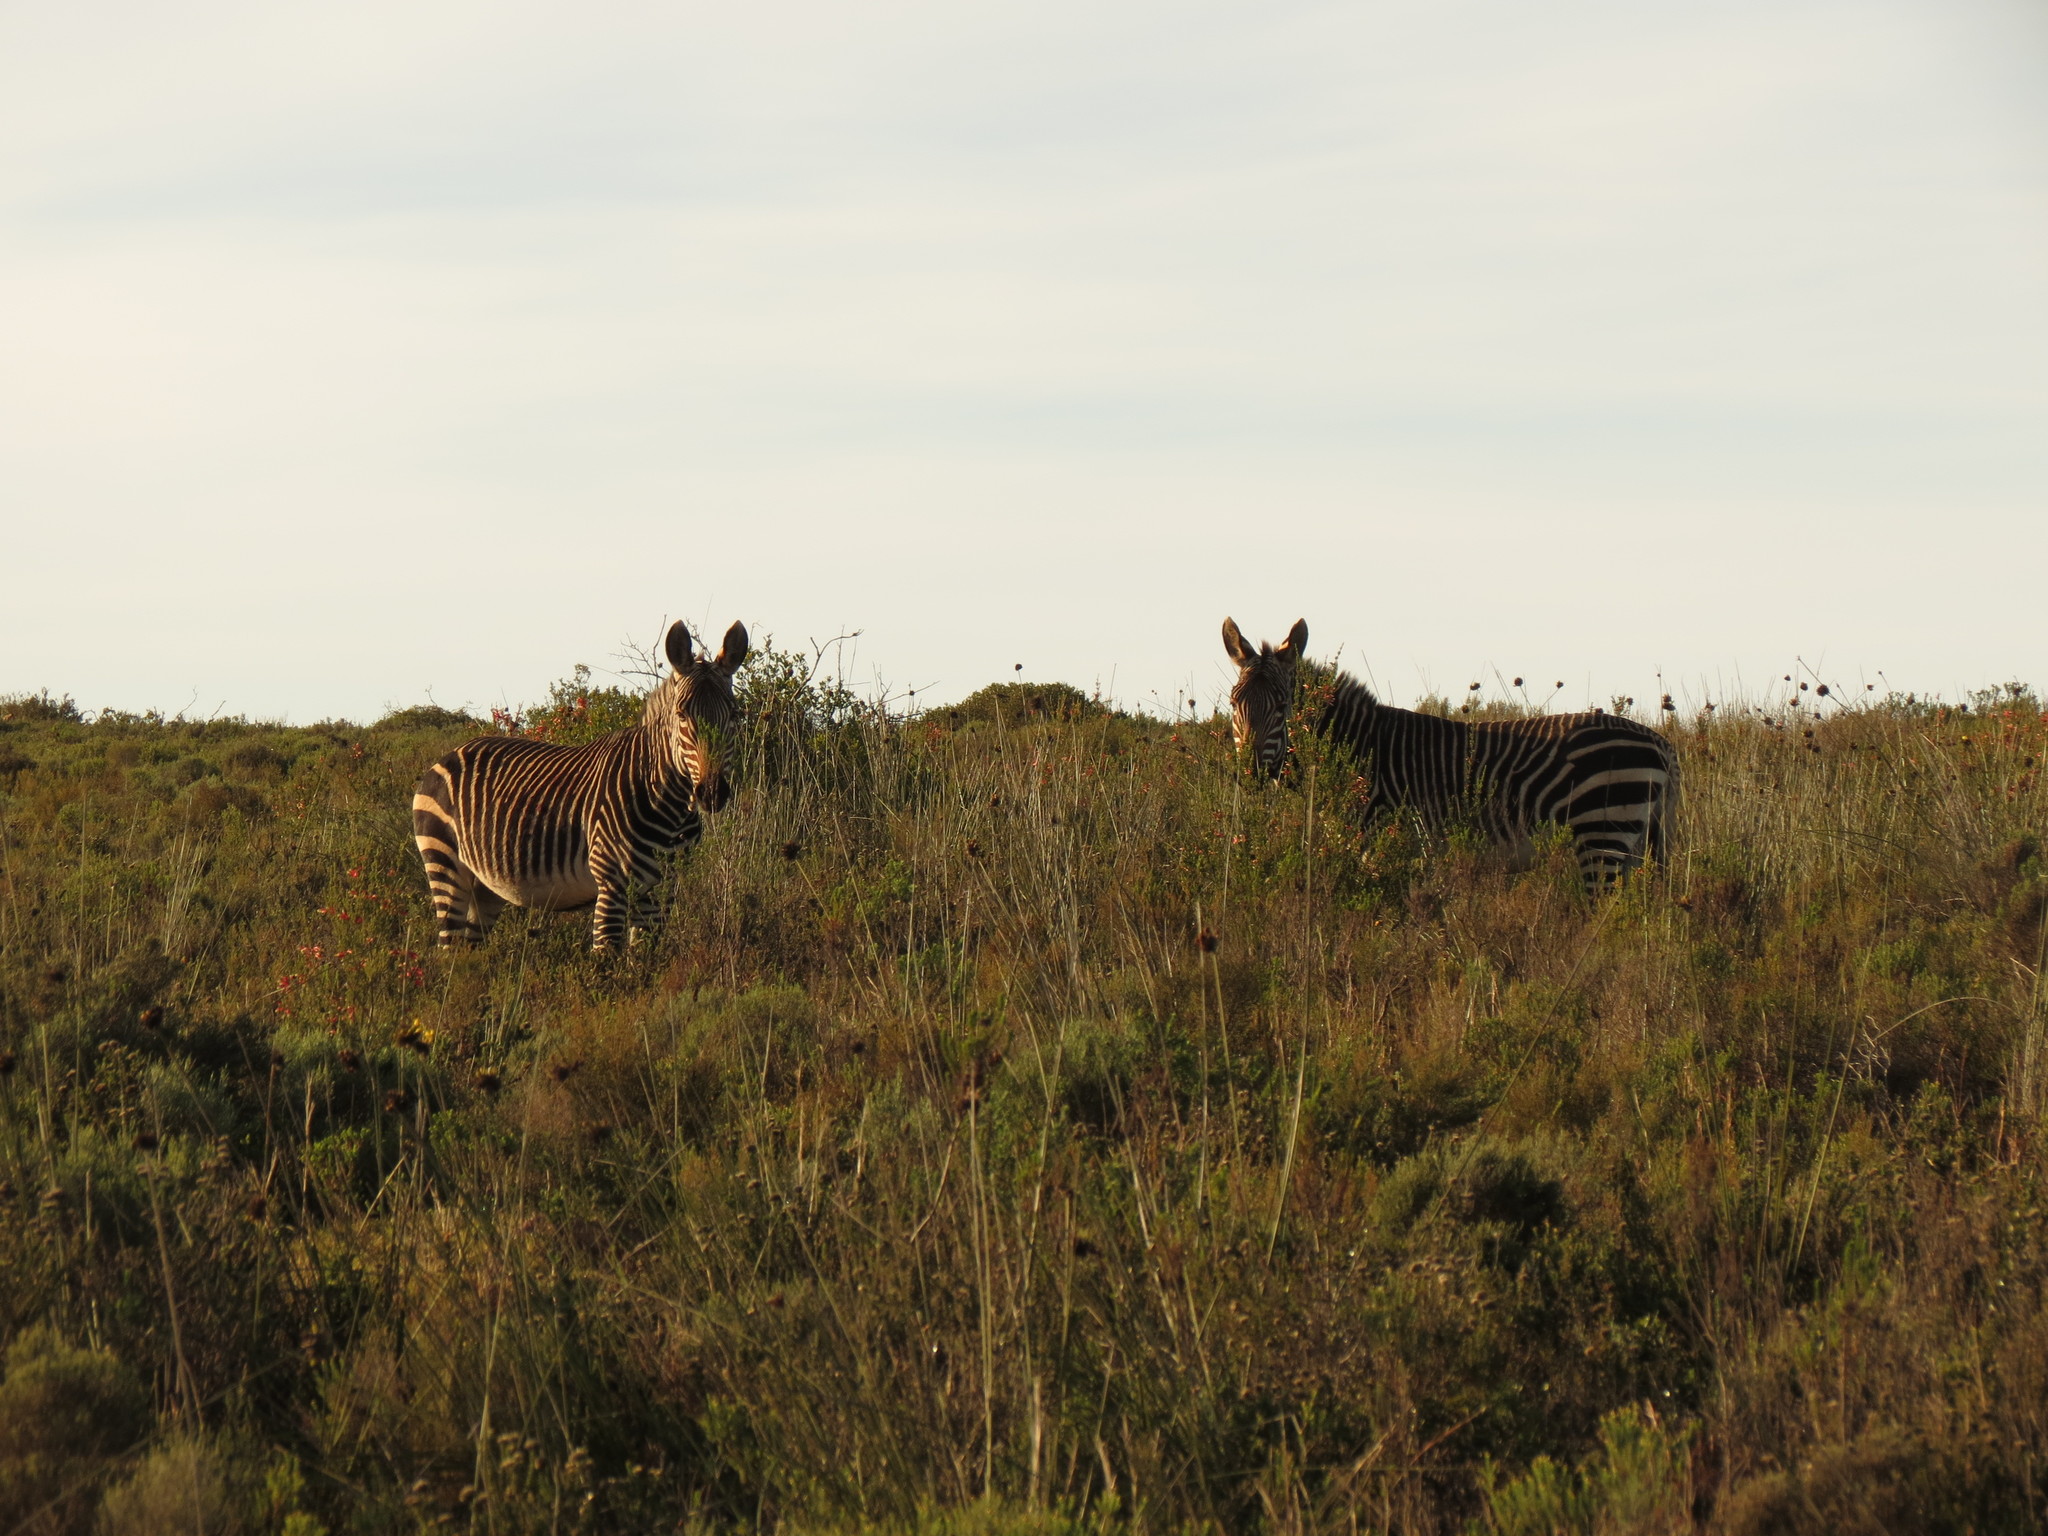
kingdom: Animalia
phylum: Chordata
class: Mammalia
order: Perissodactyla
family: Equidae
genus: Equus
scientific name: Equus zebra
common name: Mountain zebra
